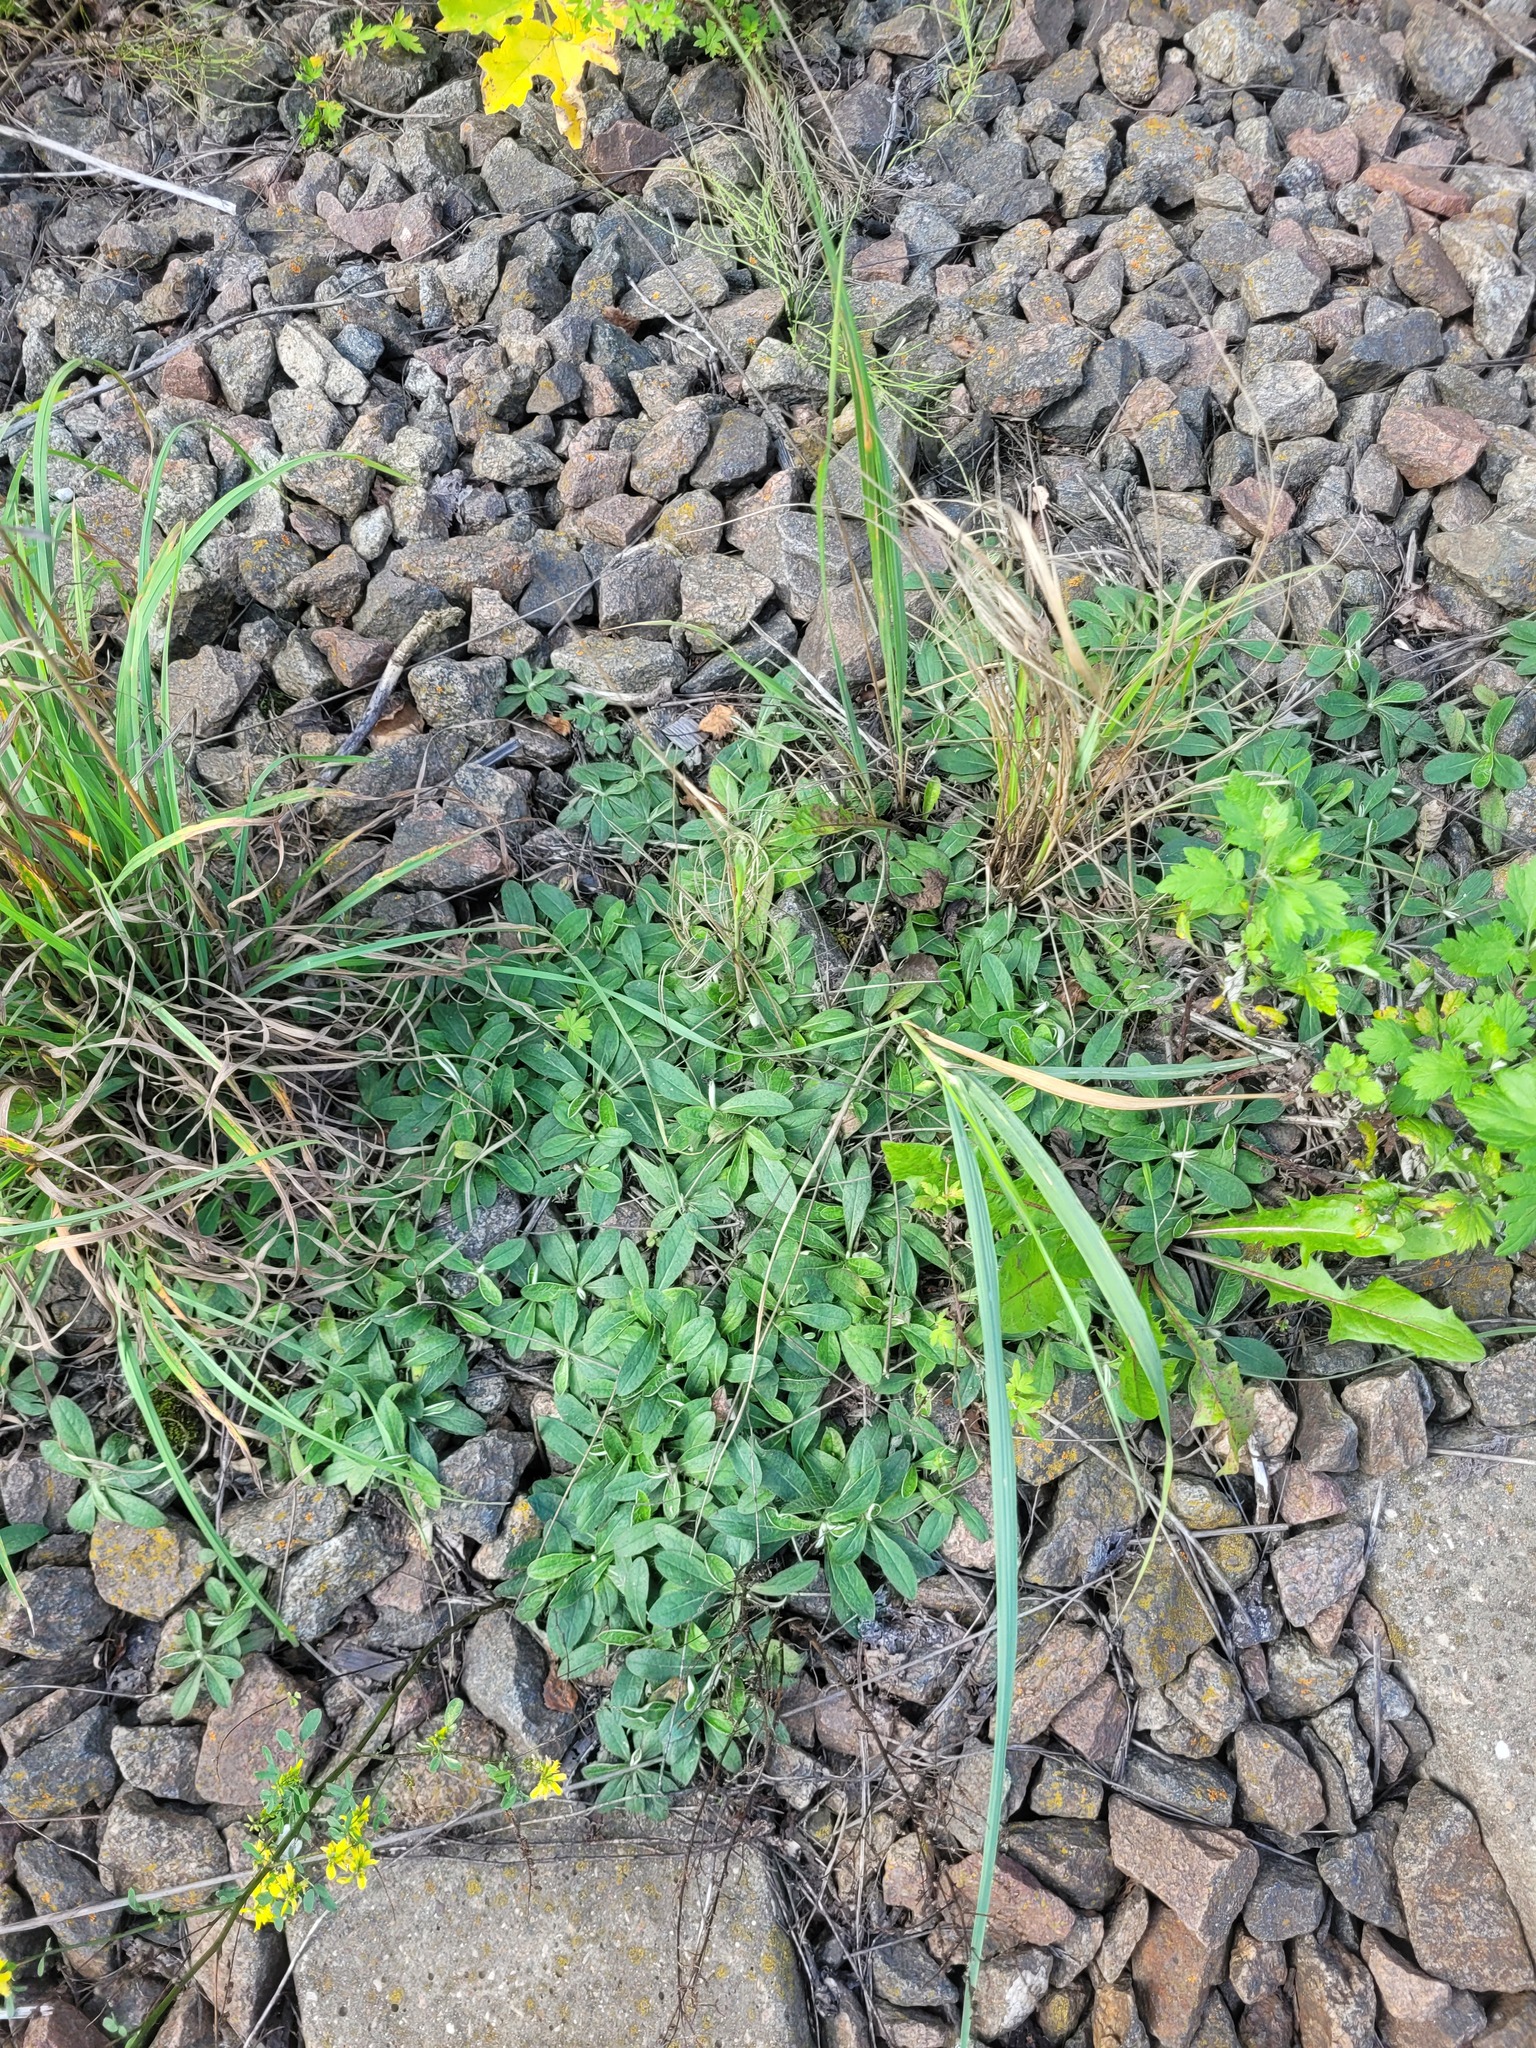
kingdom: Plantae
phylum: Tracheophyta
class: Magnoliopsida
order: Asterales
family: Asteraceae
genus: Pilosella
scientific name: Pilosella officinarum
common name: Mouse-ear hawkweed
